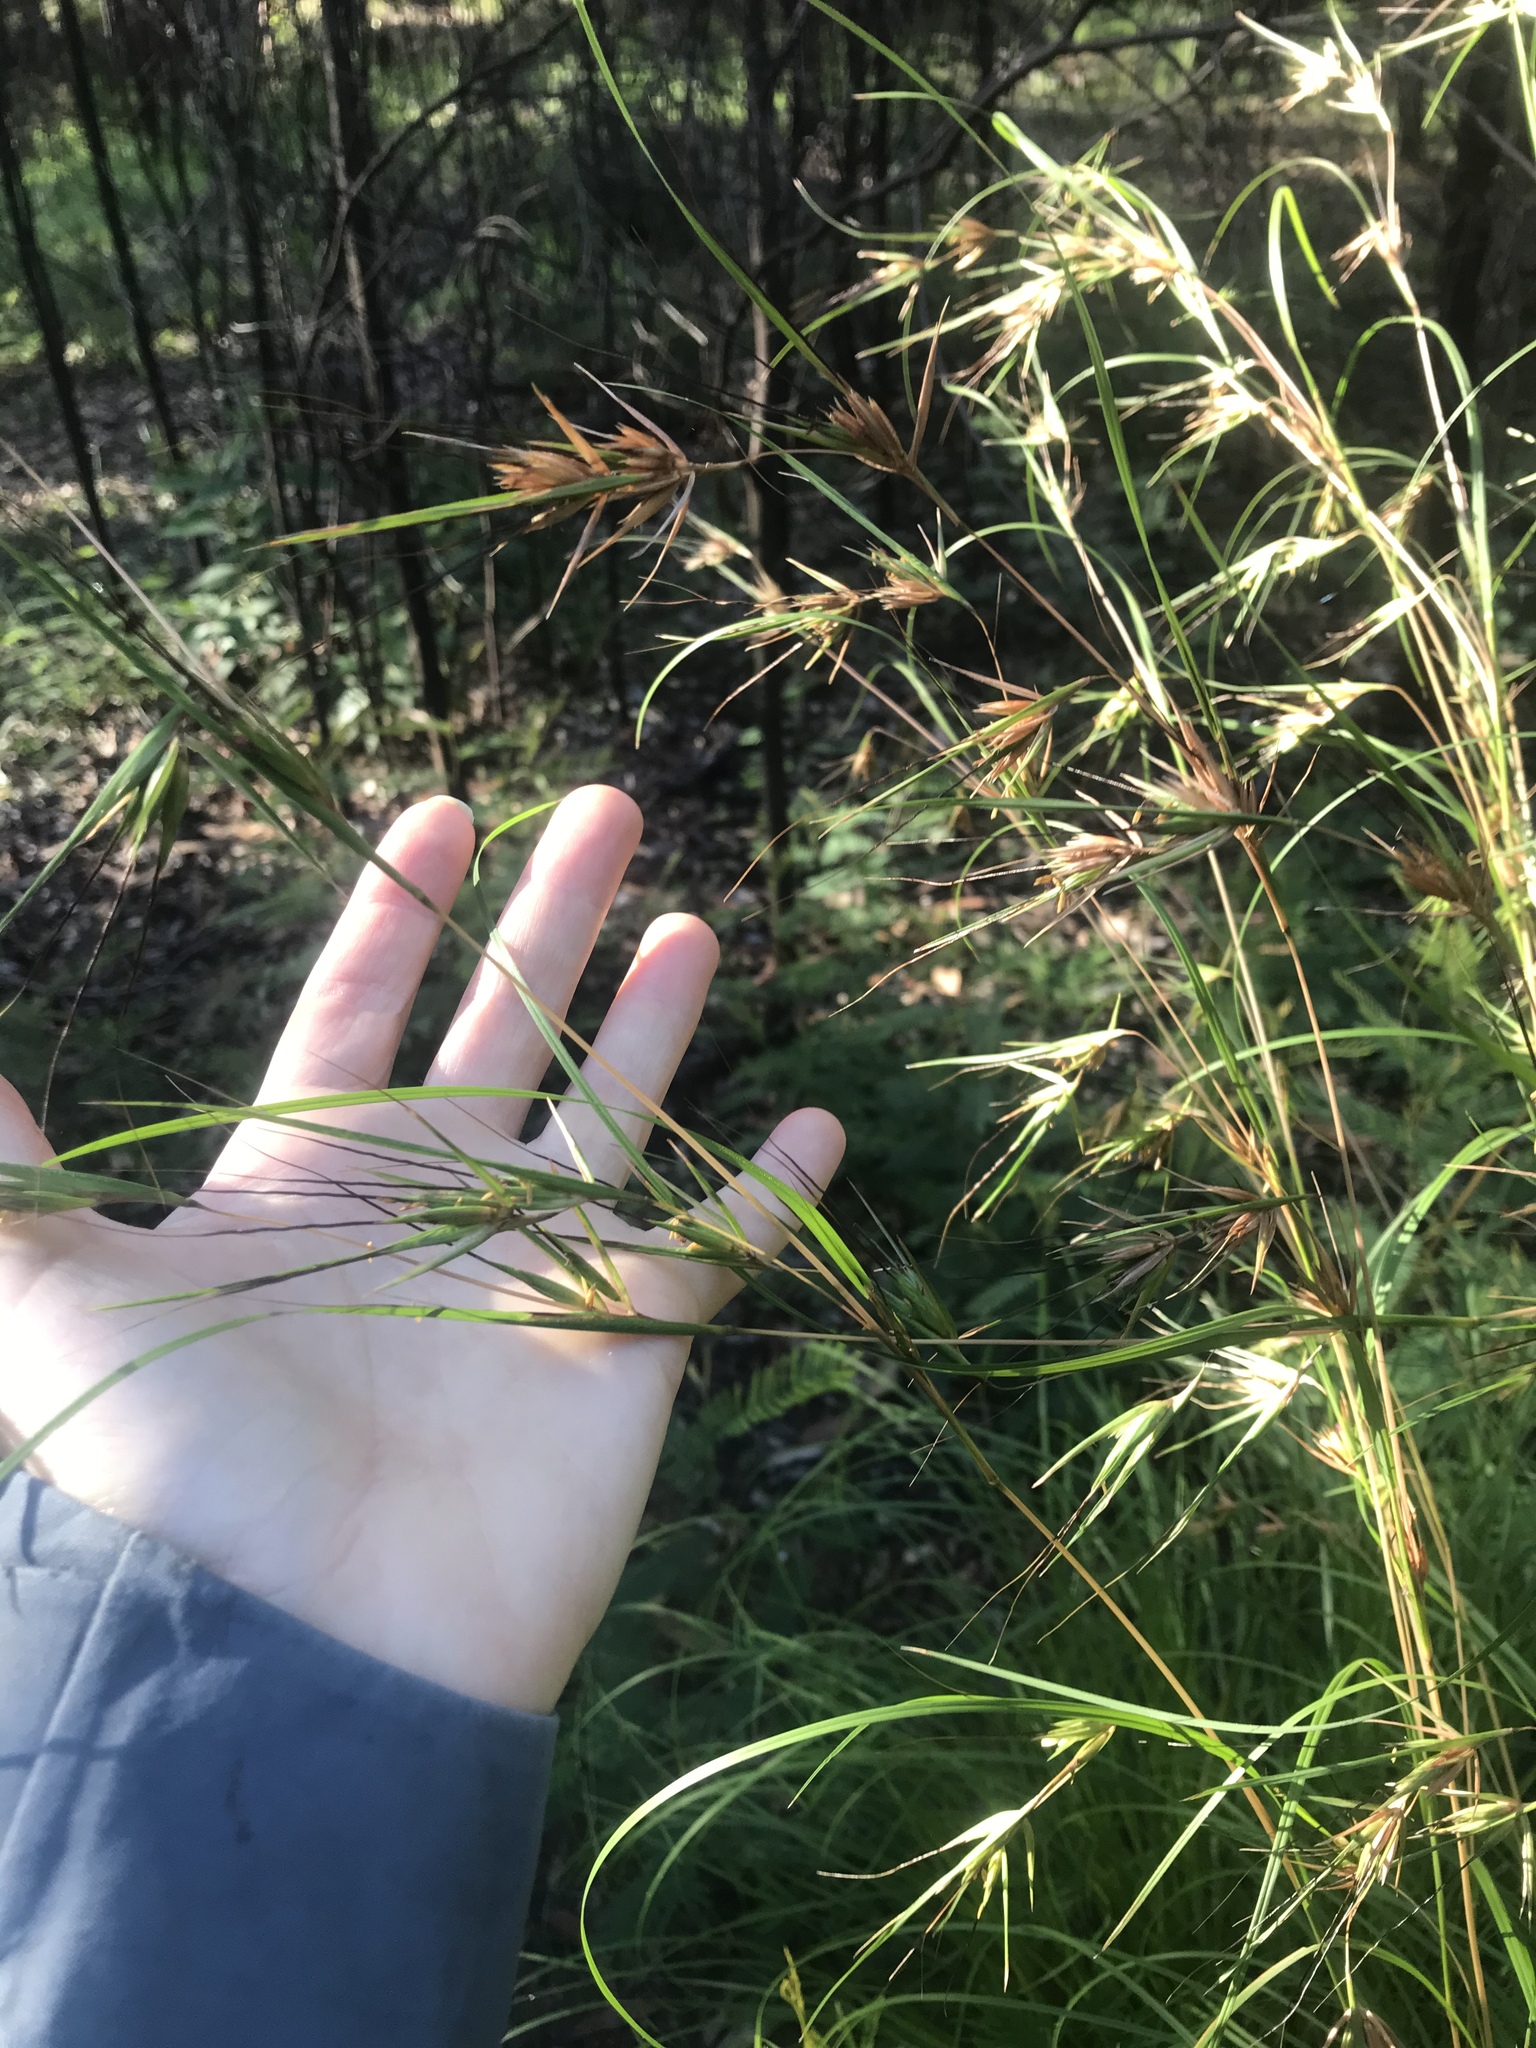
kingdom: Plantae
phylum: Tracheophyta
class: Liliopsida
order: Poales
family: Poaceae
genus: Themeda
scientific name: Themeda triandra
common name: Kangaroo grass
